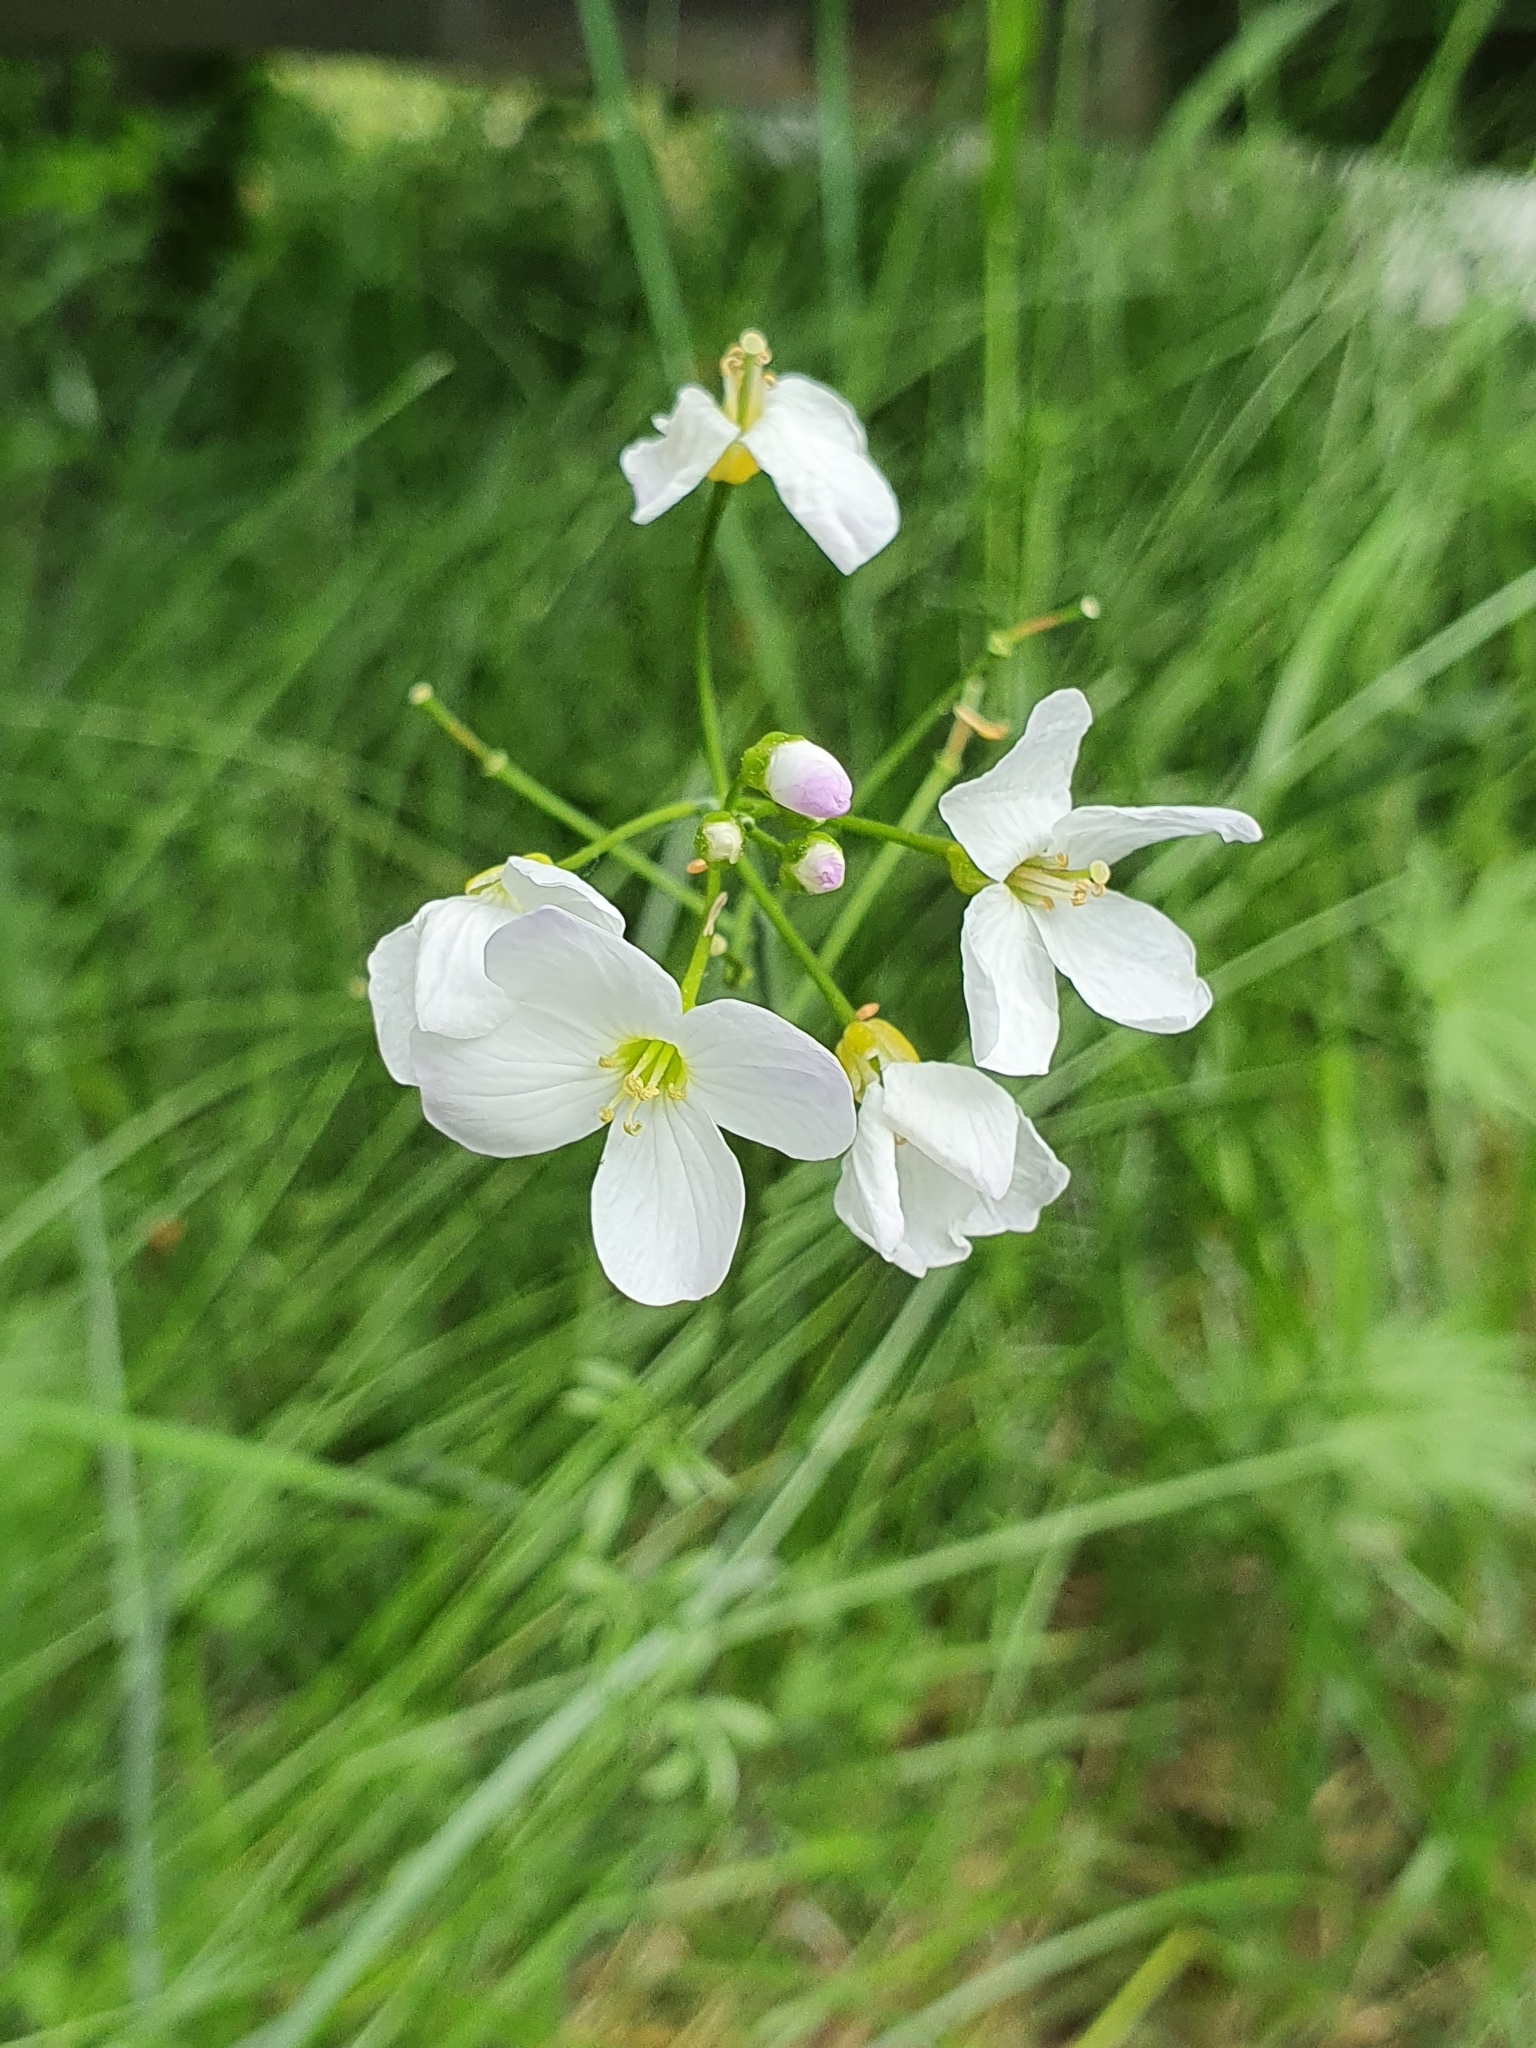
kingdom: Plantae
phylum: Tracheophyta
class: Magnoliopsida
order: Brassicales
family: Brassicaceae
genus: Cardamine
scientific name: Cardamine pratensis
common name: Cuckoo flower
